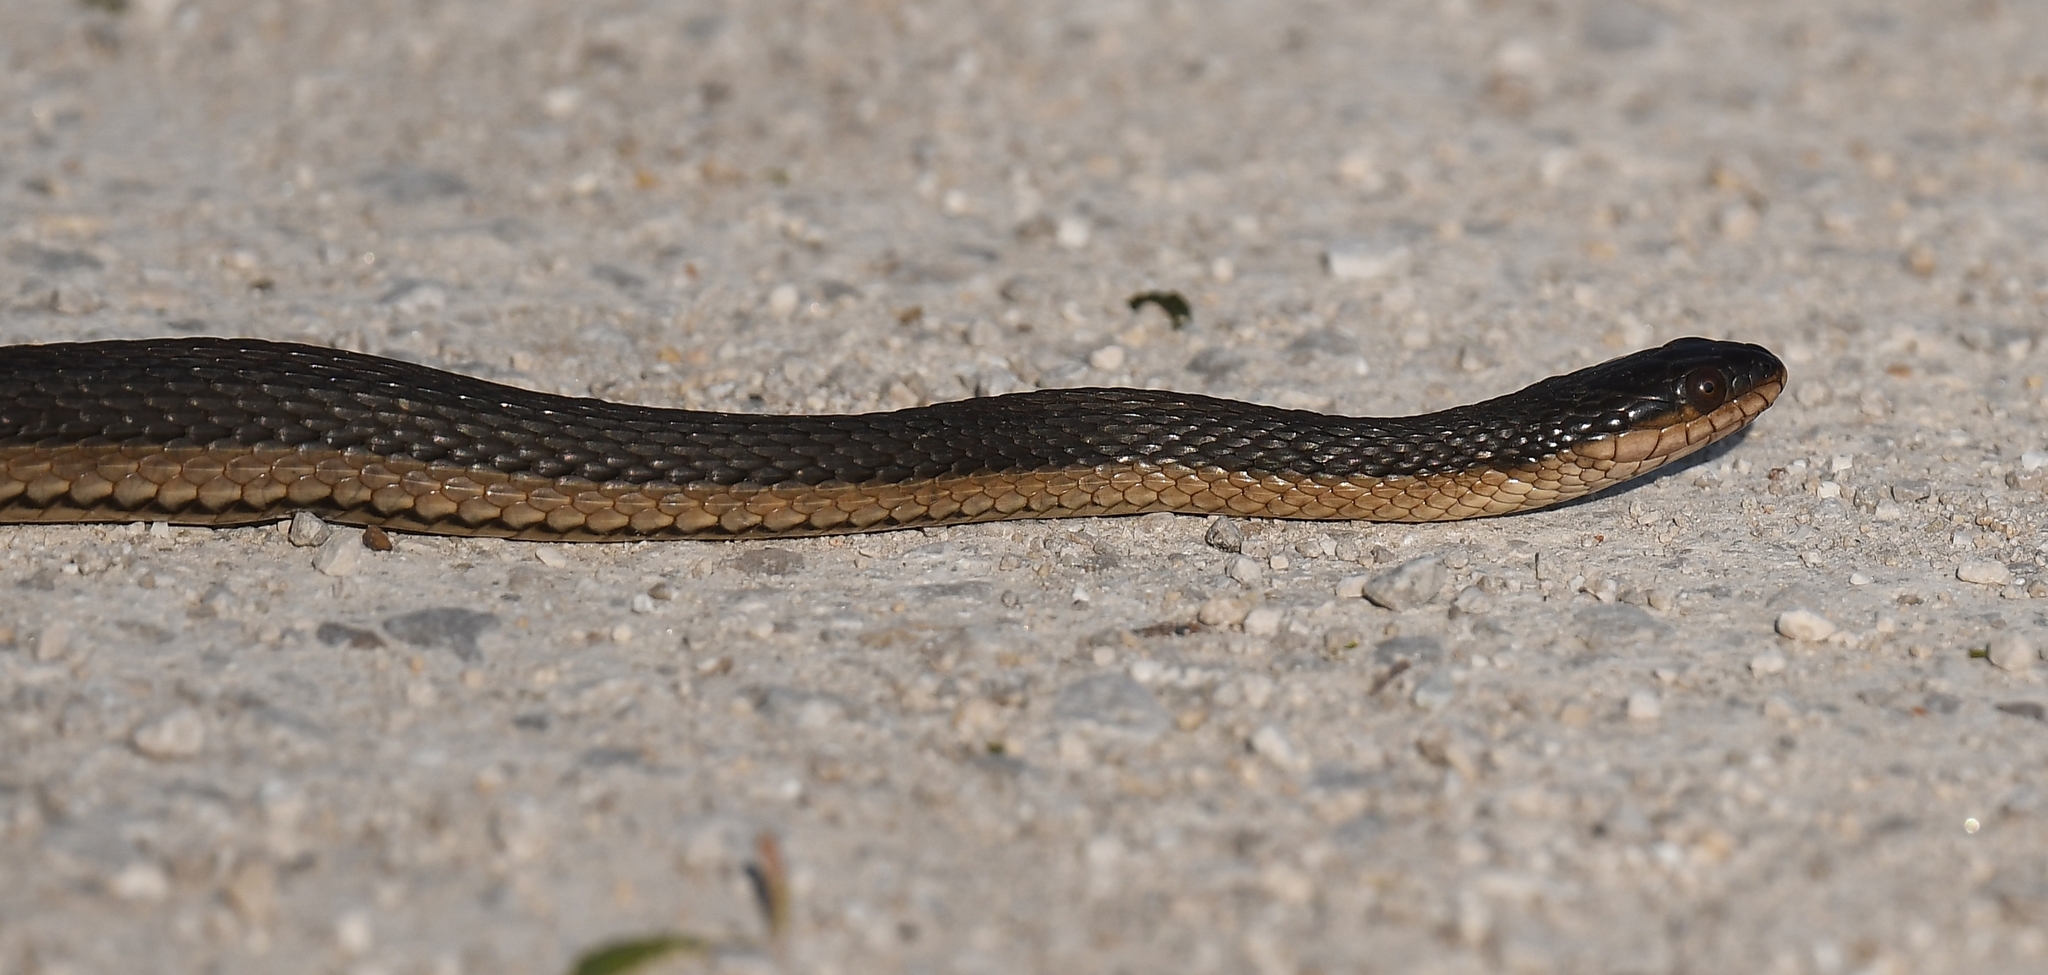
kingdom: Animalia
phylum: Chordata
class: Squamata
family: Colubridae
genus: Regina
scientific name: Regina grahamii
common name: Graham's crayfish snake
